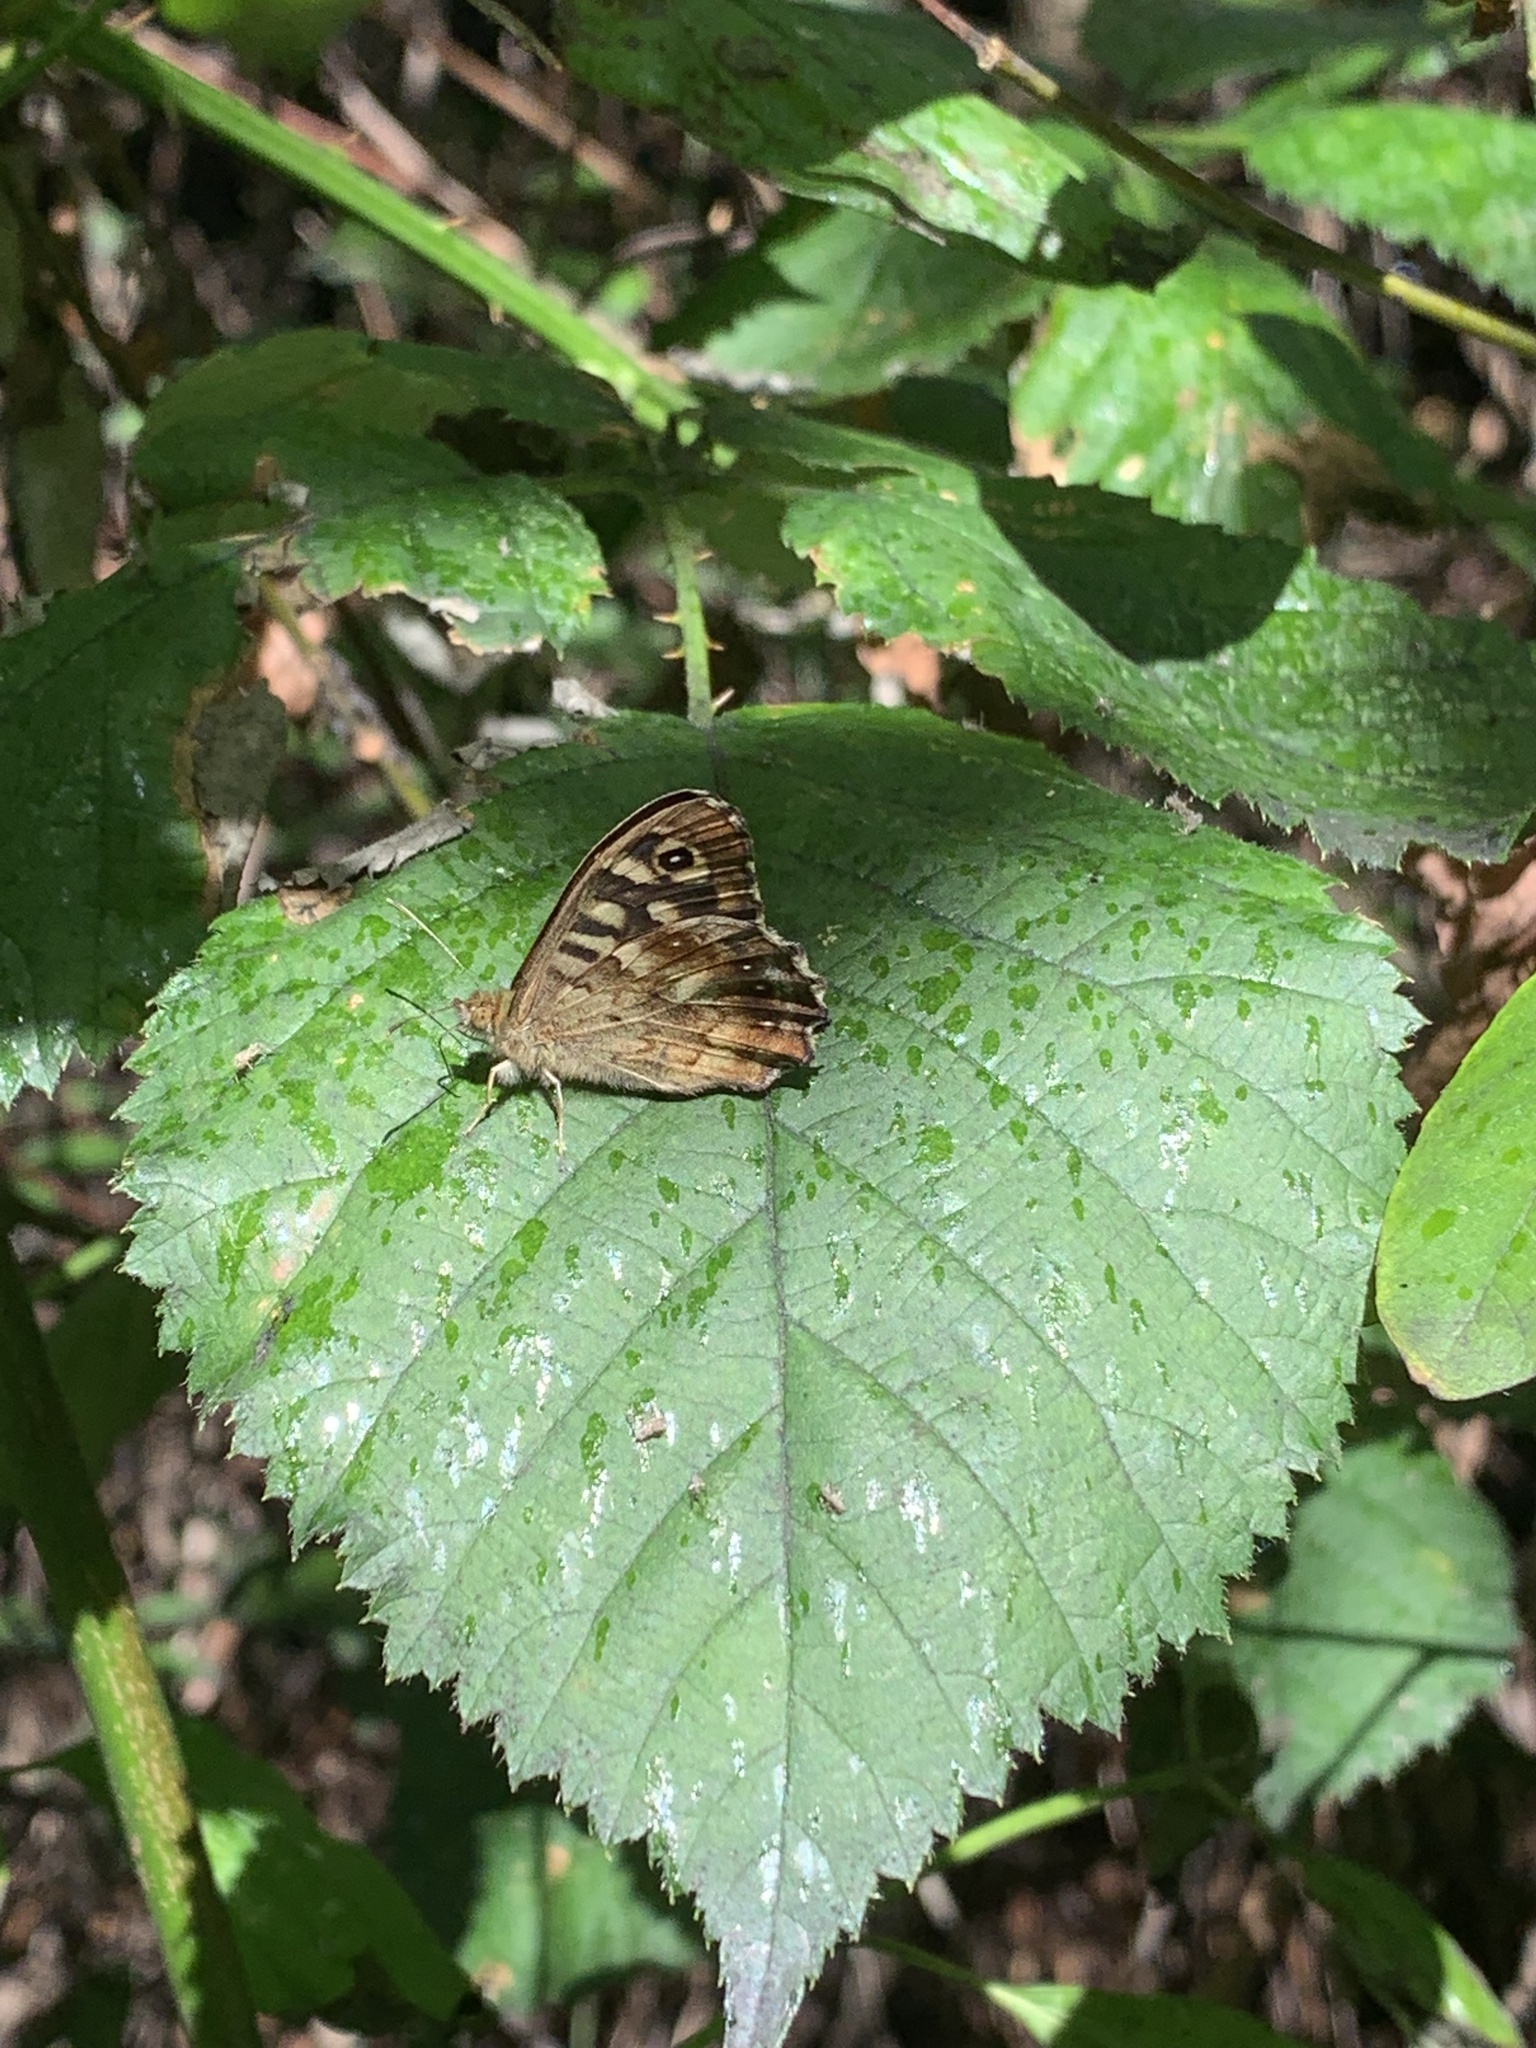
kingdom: Animalia
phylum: Arthropoda
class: Insecta
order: Lepidoptera
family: Nymphalidae
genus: Pararge
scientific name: Pararge aegeria
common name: Speckled wood
